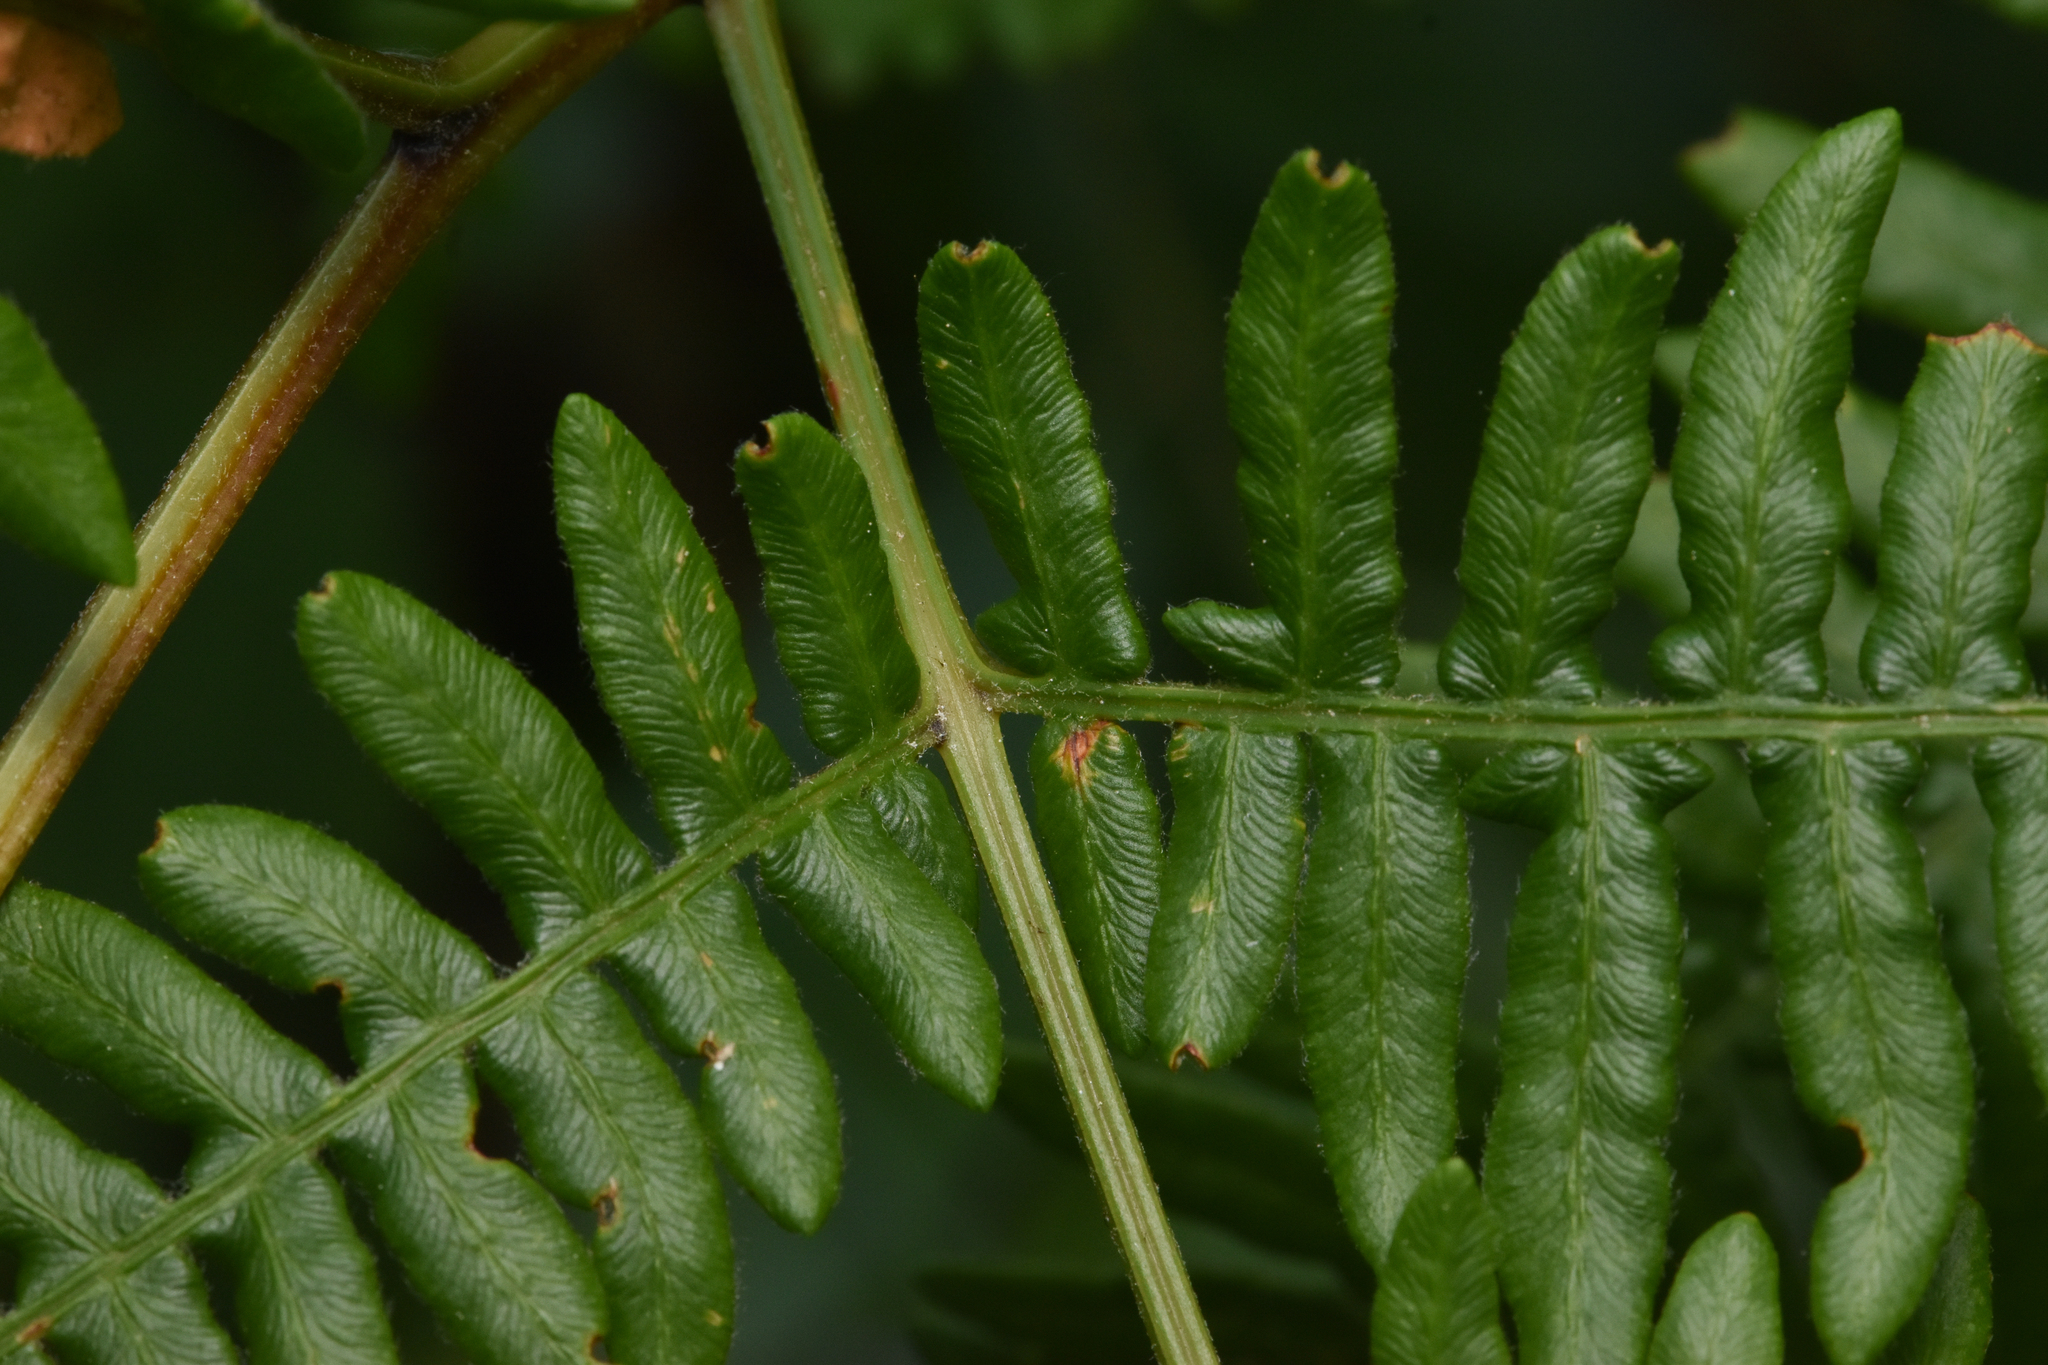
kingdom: Plantae
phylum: Tracheophyta
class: Polypodiopsida
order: Polypodiales
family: Dennstaedtiaceae
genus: Pteridium
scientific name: Pteridium aquilinum
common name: Bracken
